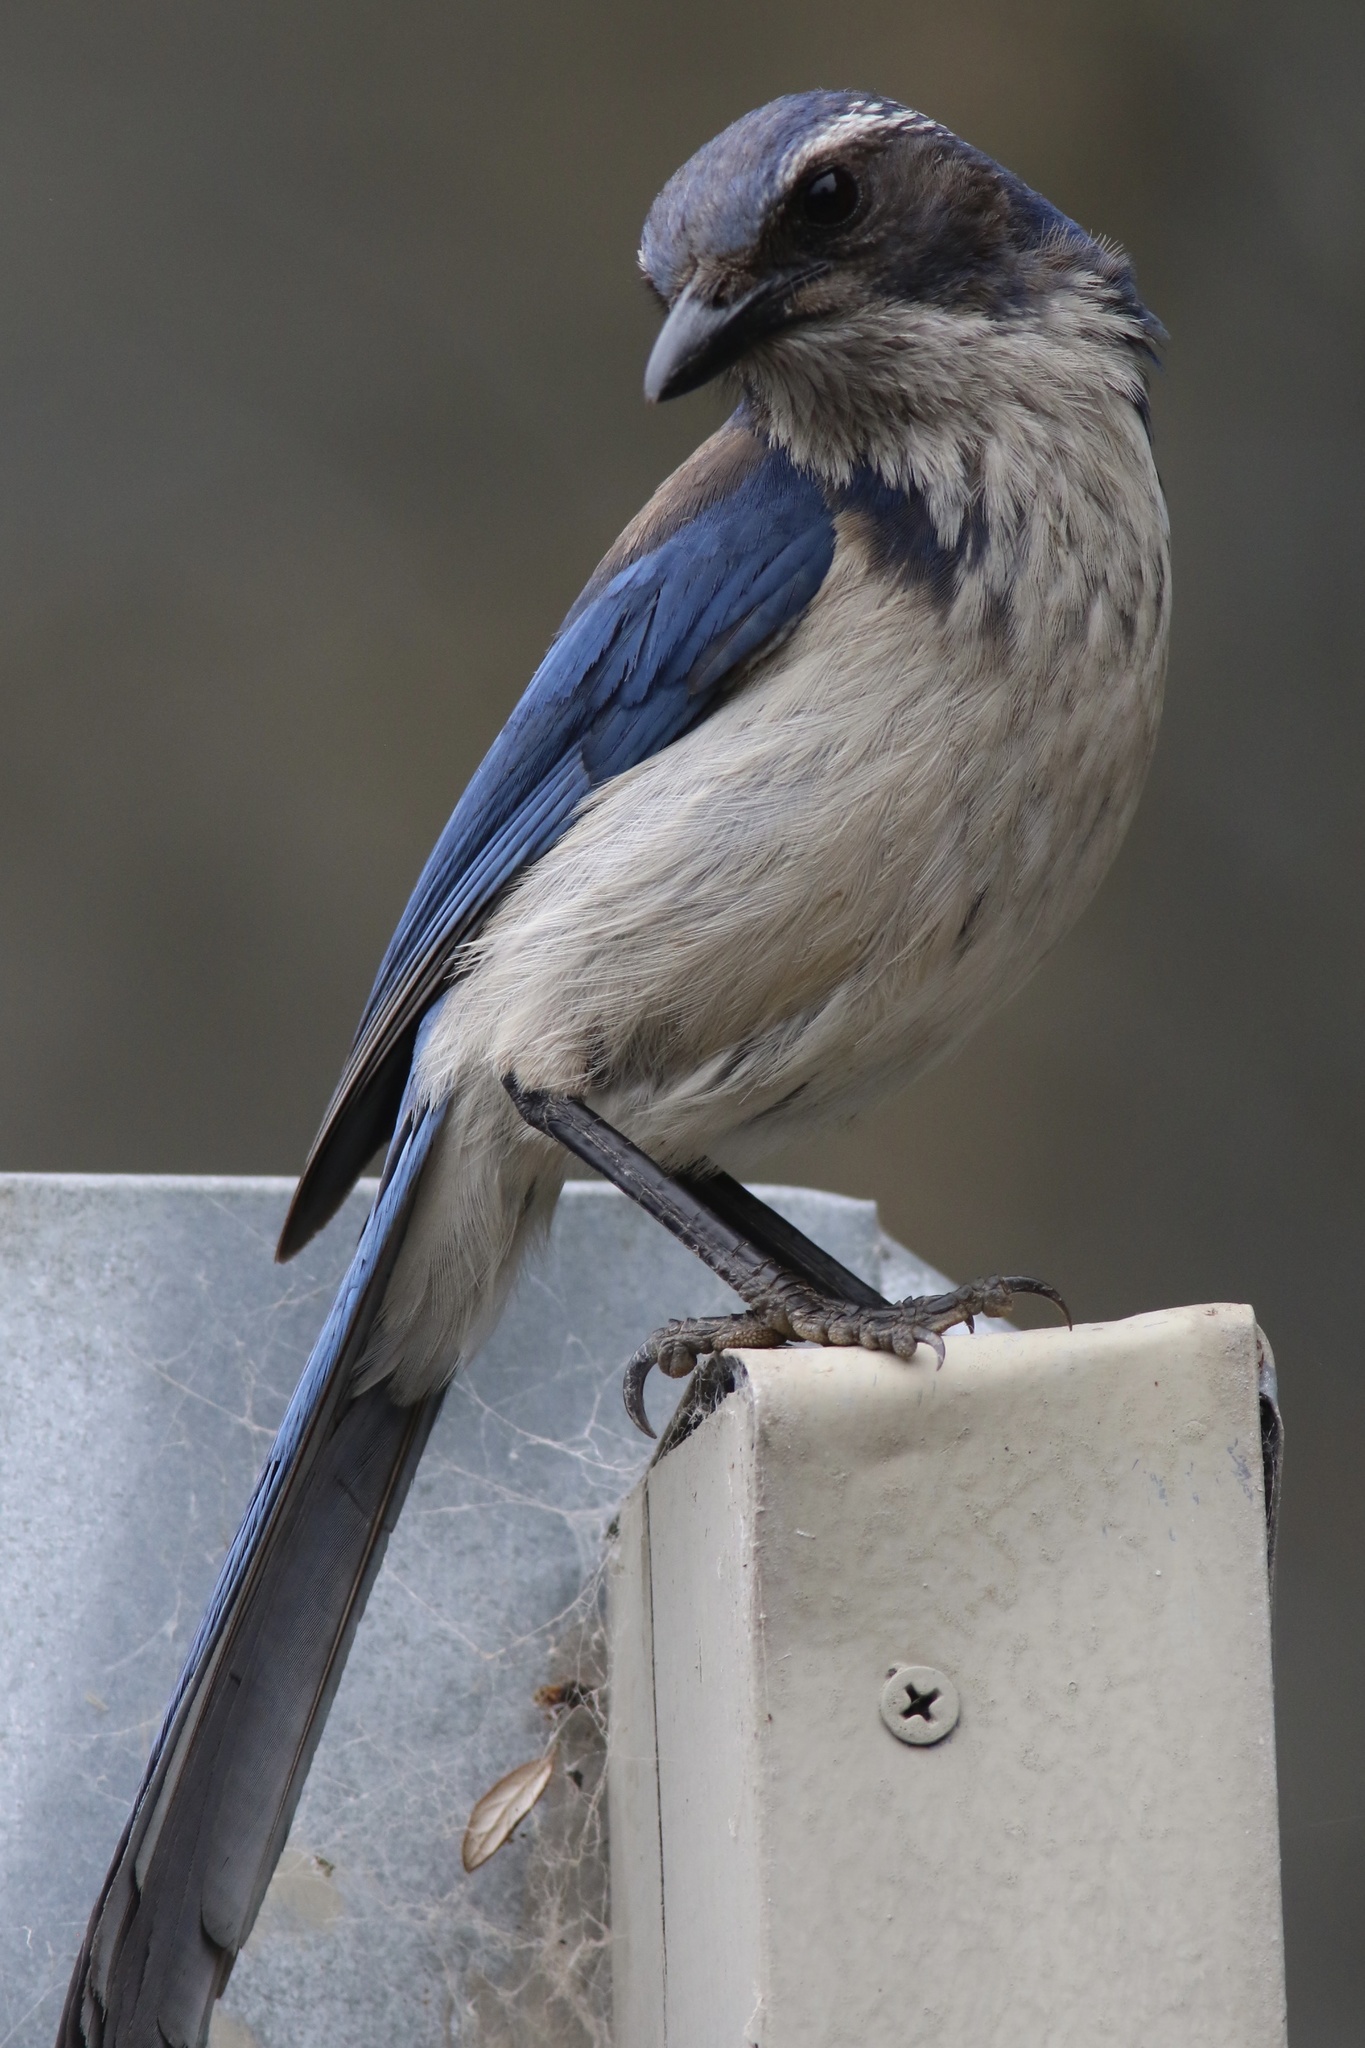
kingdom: Animalia
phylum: Chordata
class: Aves
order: Passeriformes
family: Corvidae
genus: Aphelocoma
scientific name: Aphelocoma californica
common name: California scrub-jay
